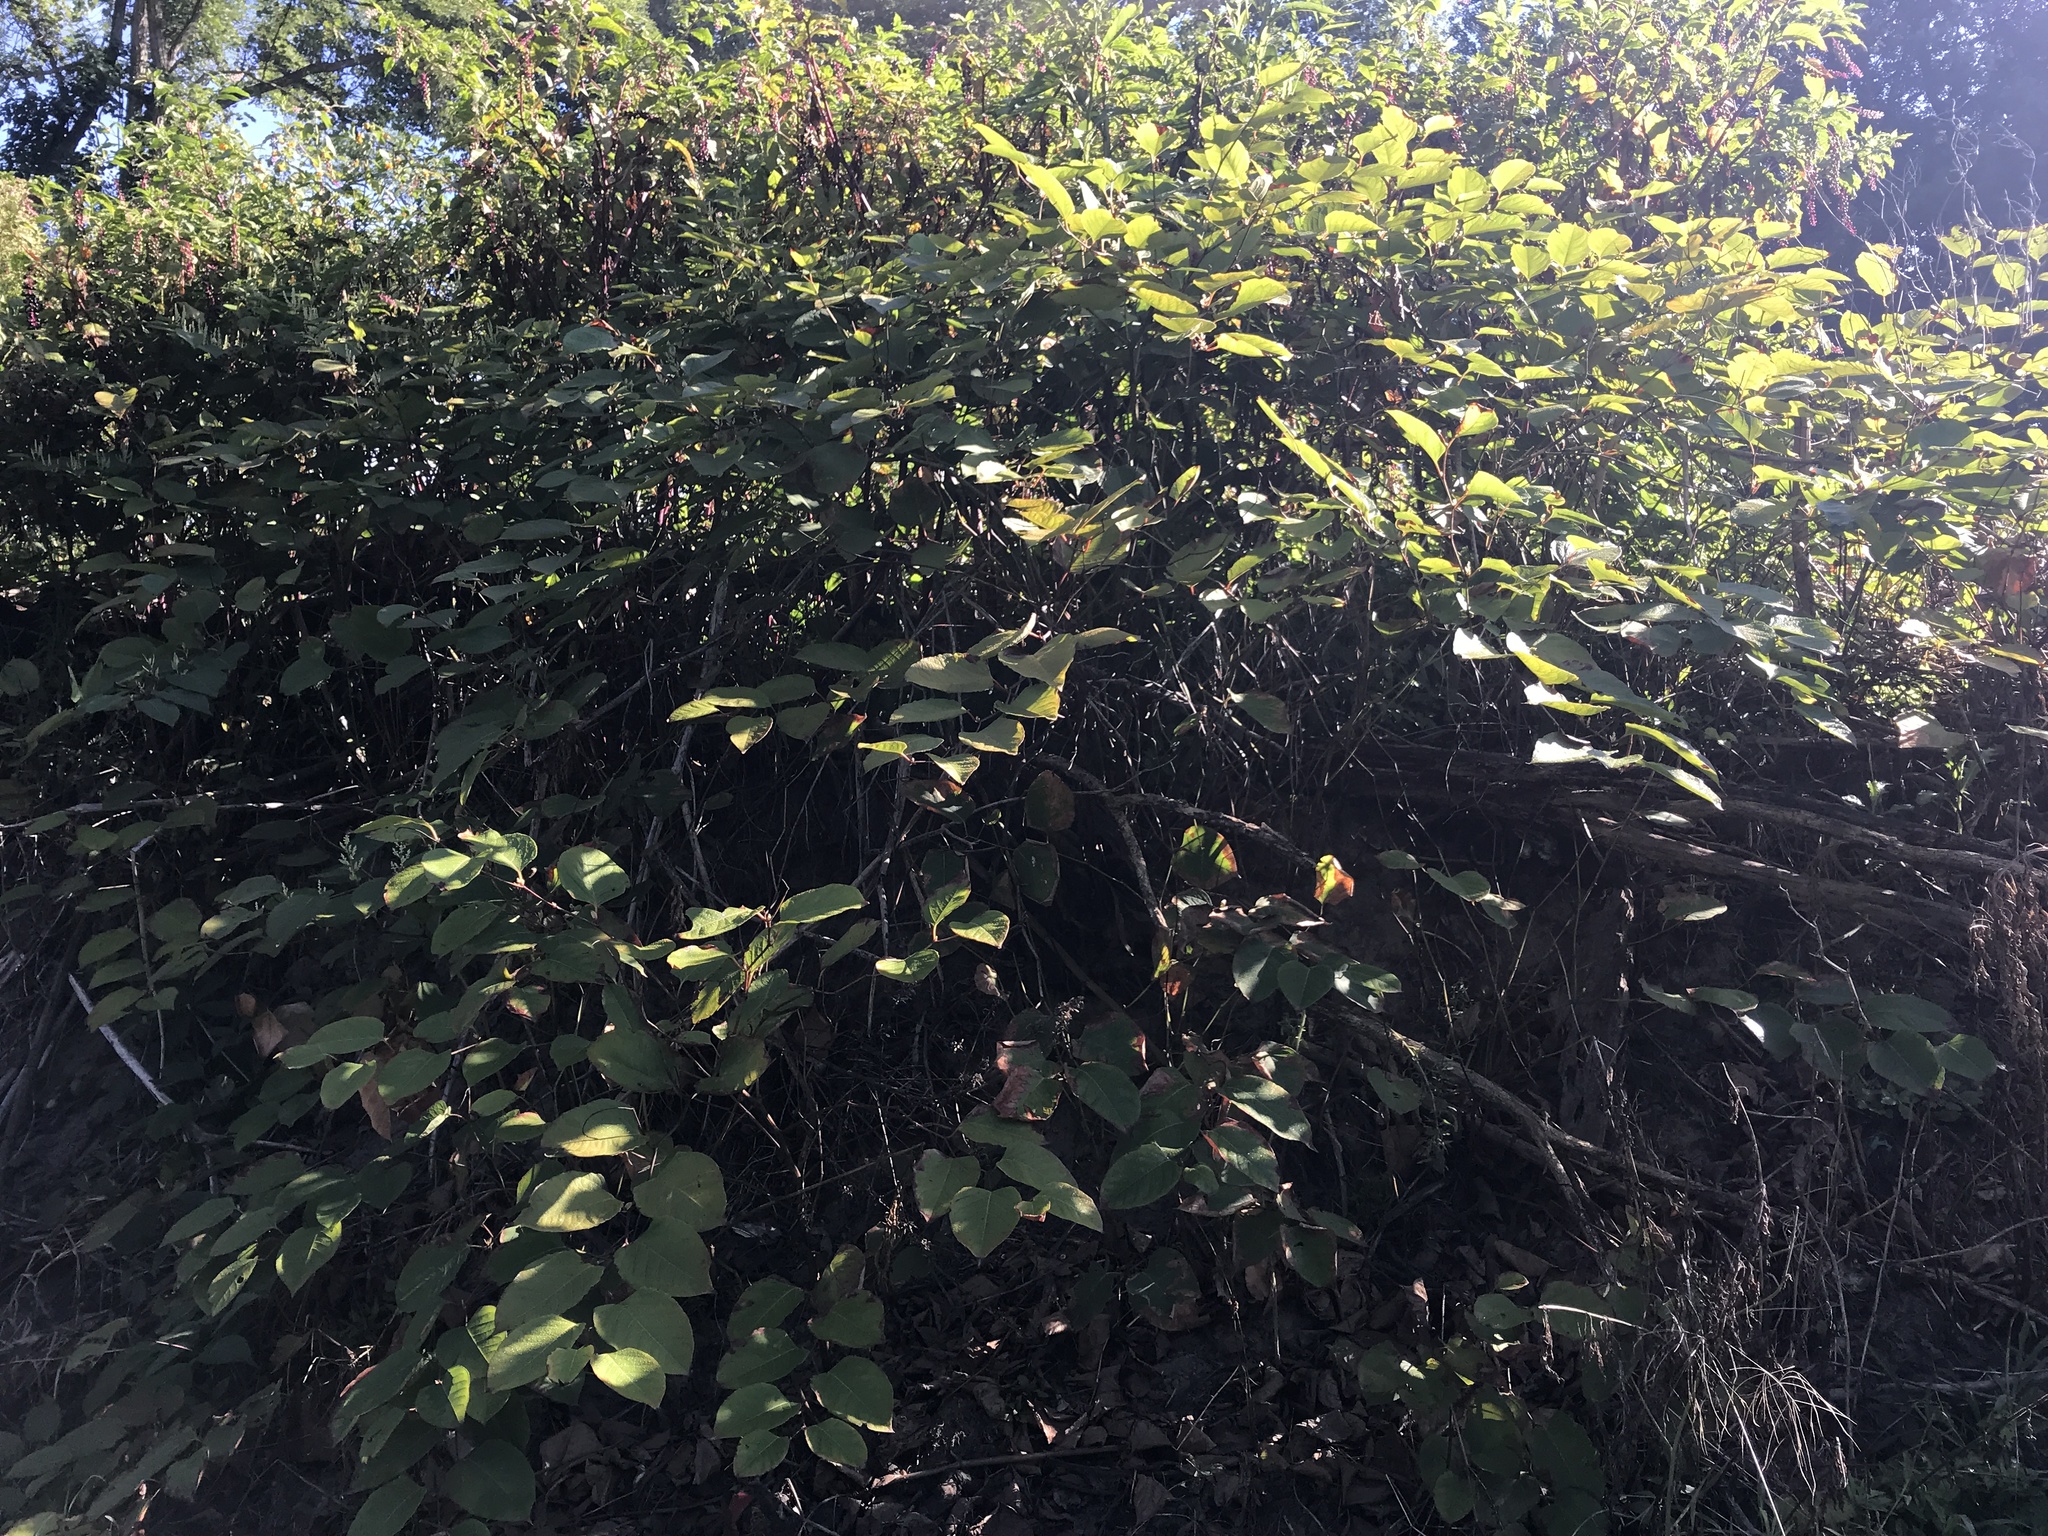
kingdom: Plantae
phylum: Tracheophyta
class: Magnoliopsida
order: Caryophyllales
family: Polygonaceae
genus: Reynoutria
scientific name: Reynoutria japonica
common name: Japanese knotweed
